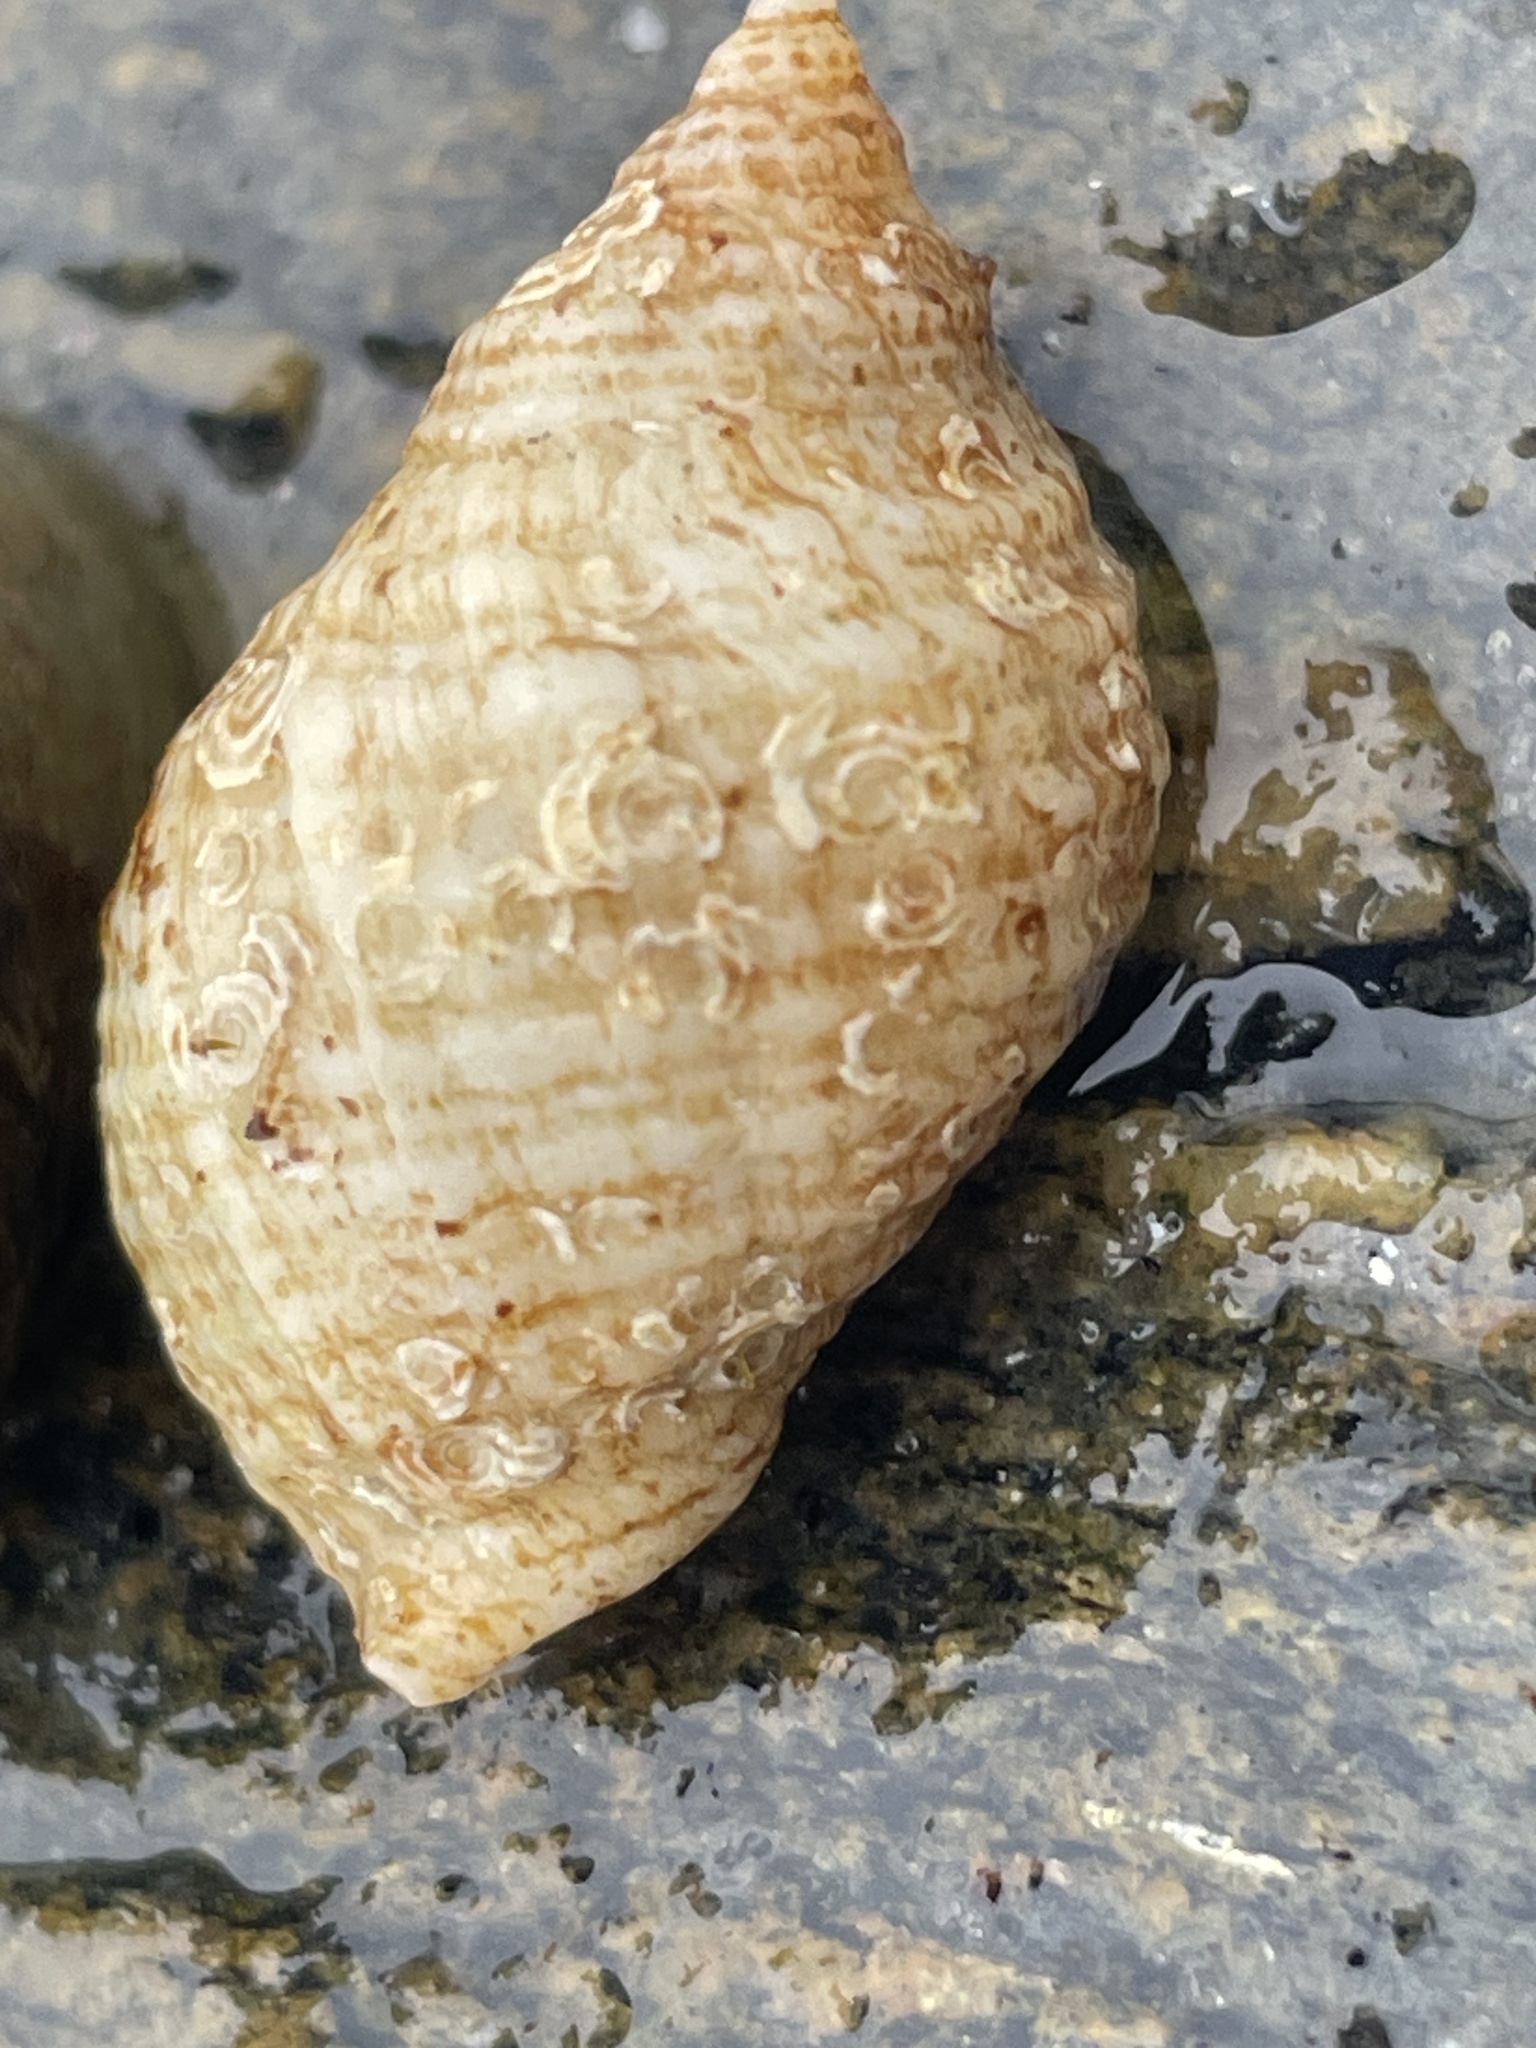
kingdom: Animalia
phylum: Mollusca
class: Gastropoda
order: Neogastropoda
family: Muricidae
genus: Nucella
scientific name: Nucella lapillus
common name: Dog whelk
